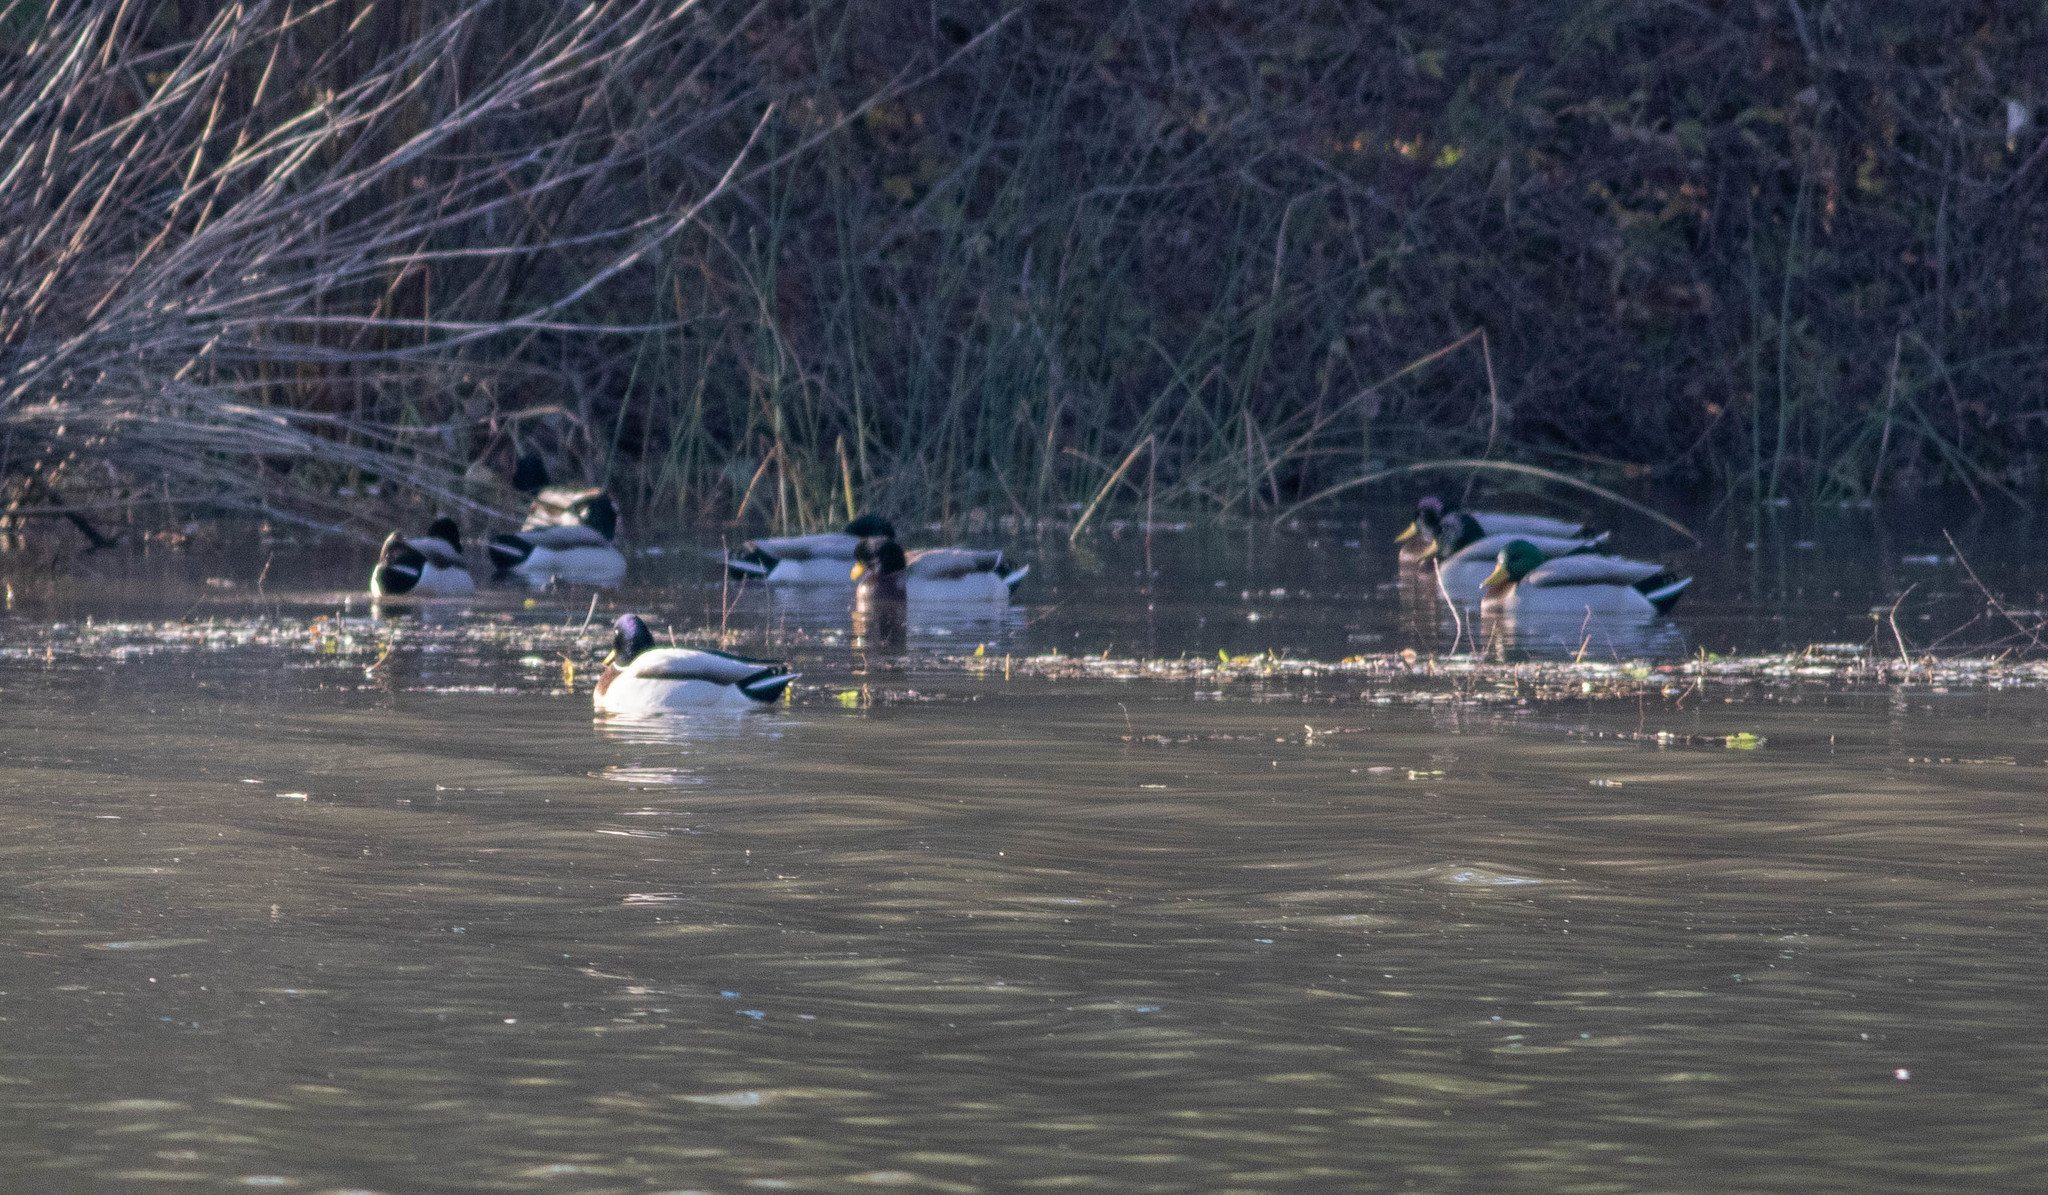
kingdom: Animalia
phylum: Chordata
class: Aves
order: Anseriformes
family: Anatidae
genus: Anas
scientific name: Anas platyrhynchos
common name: Mallard
